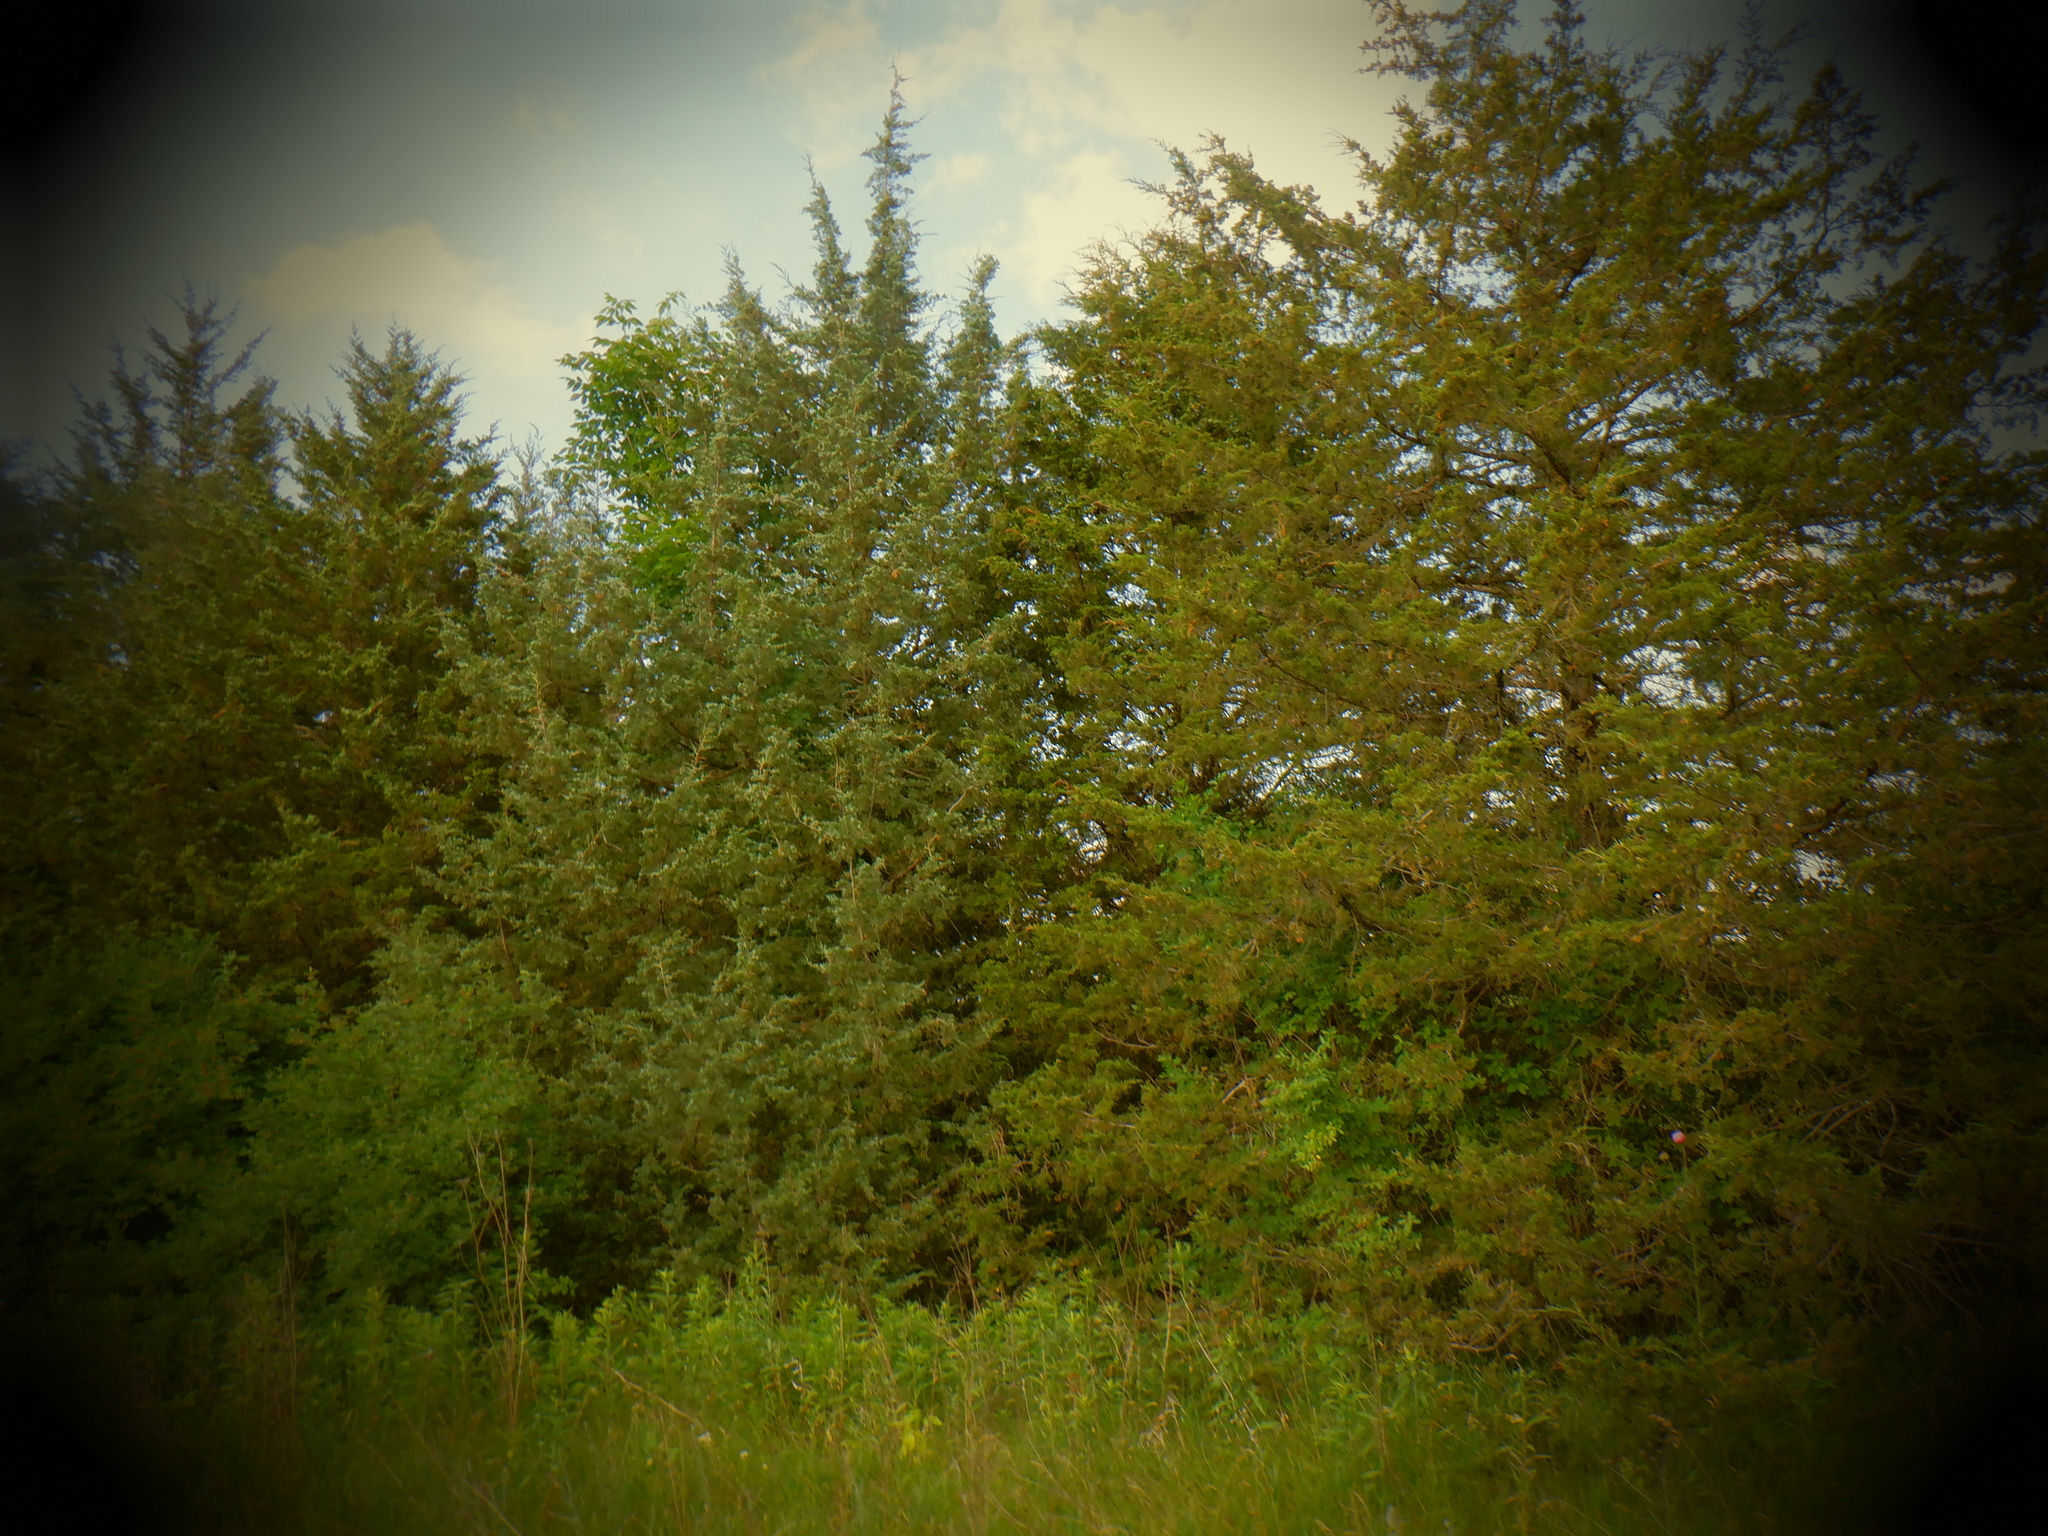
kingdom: Plantae
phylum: Tracheophyta
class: Pinopsida
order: Pinales
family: Cupressaceae
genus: Juniperus
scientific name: Juniperus virginiana
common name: Red juniper
